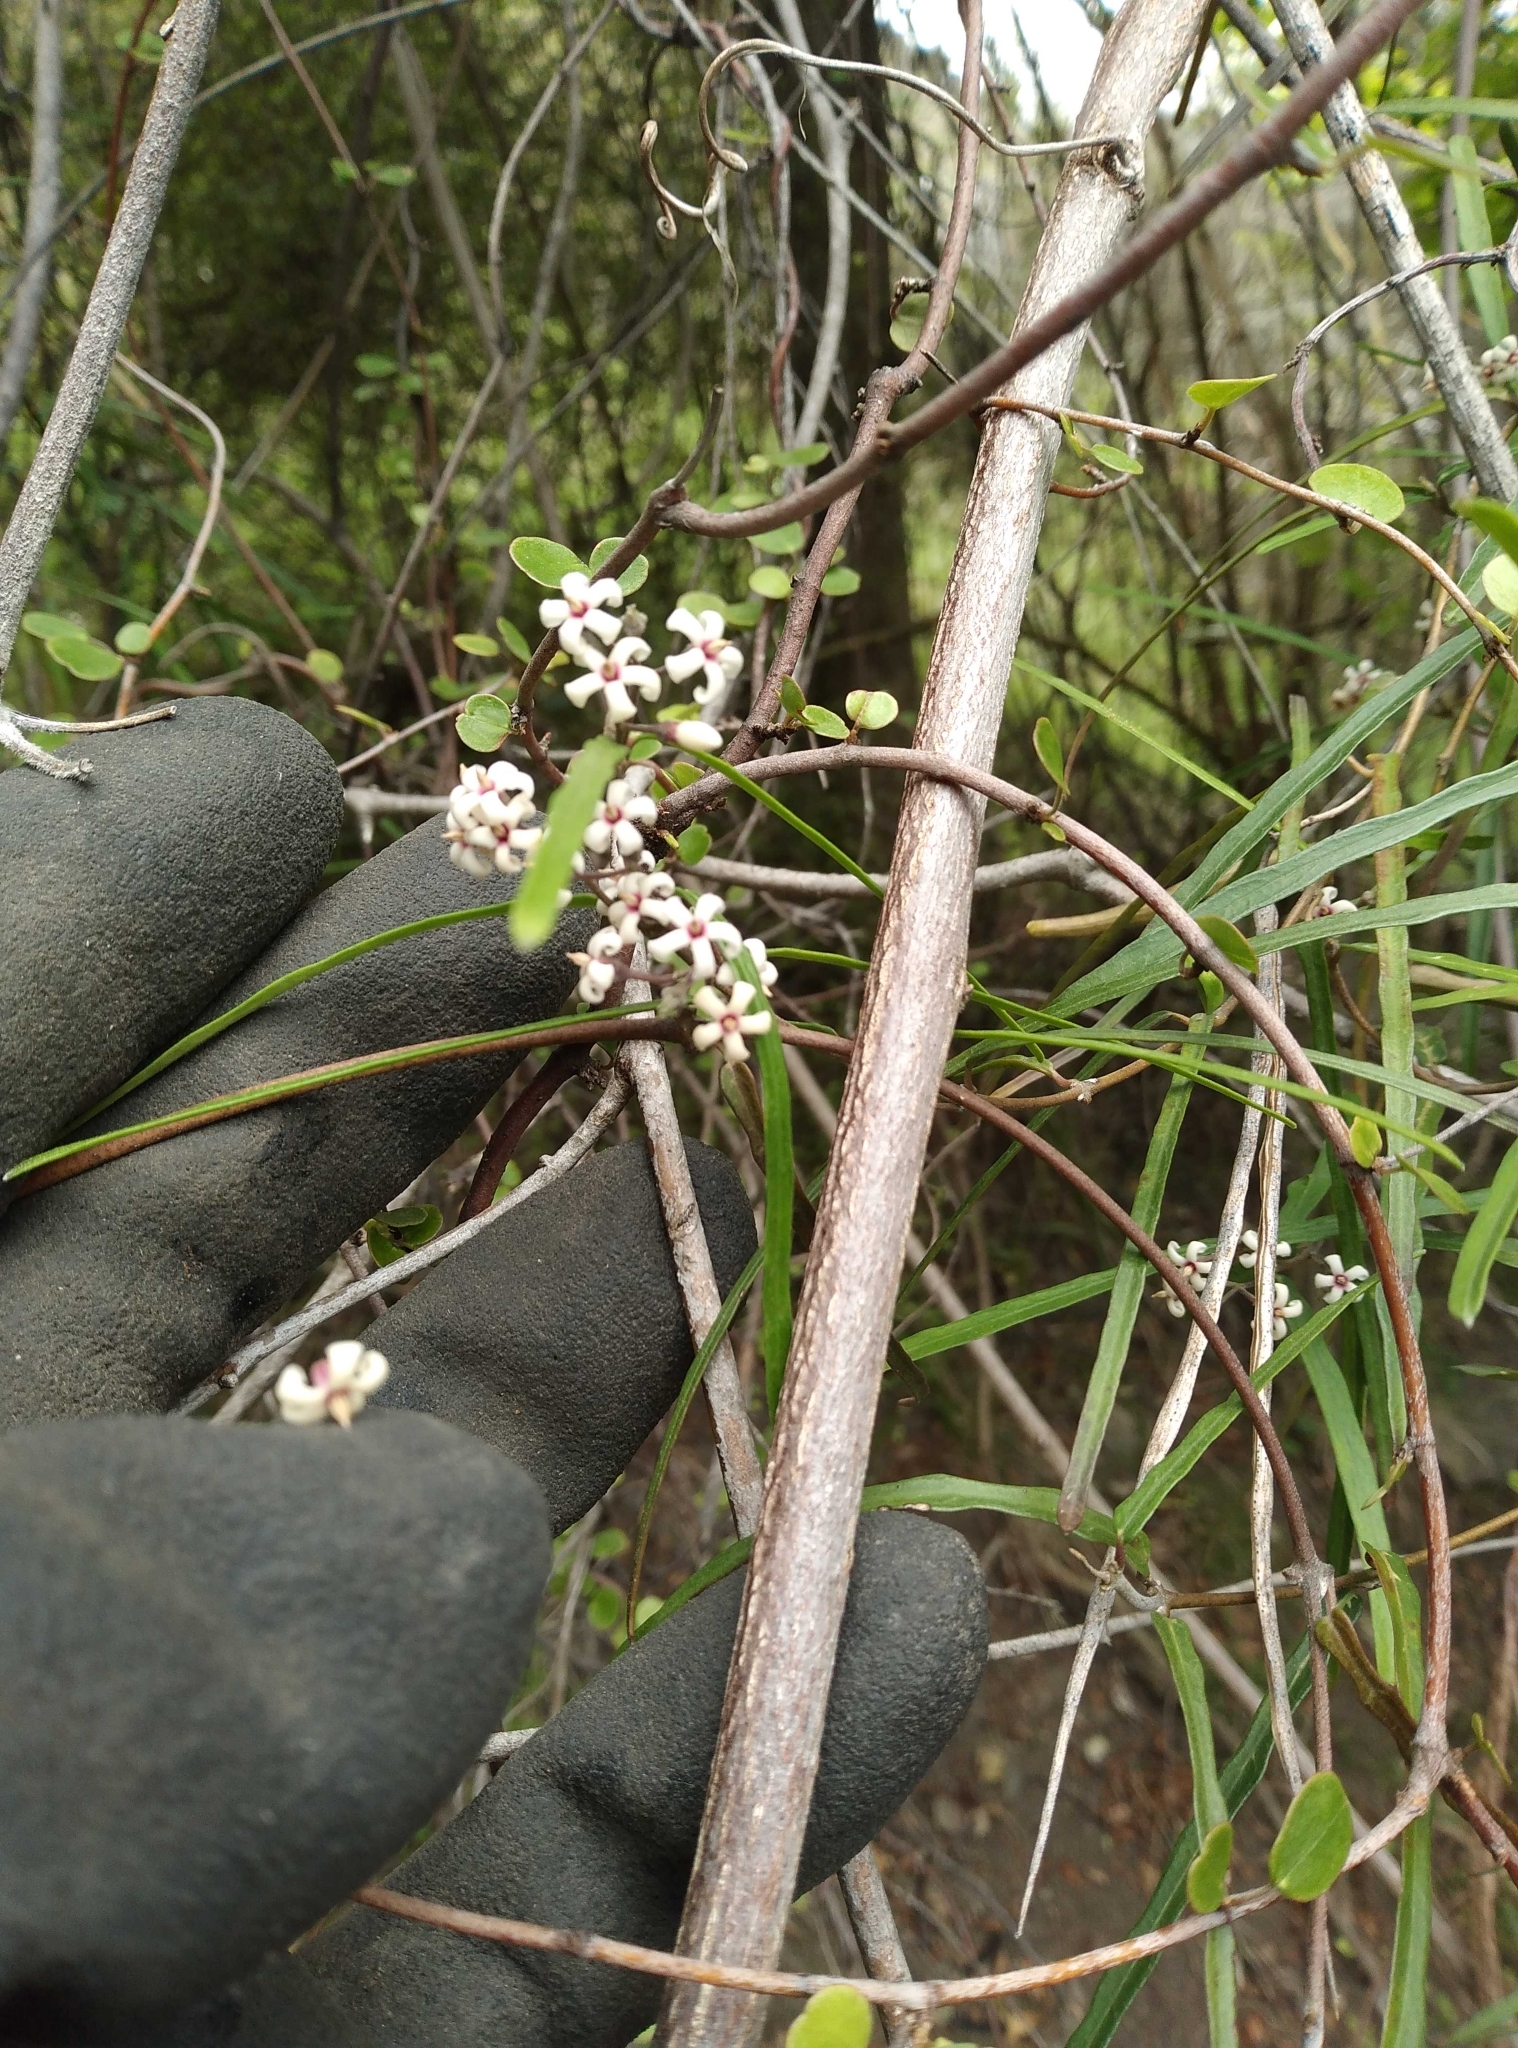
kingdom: Plantae
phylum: Tracheophyta
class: Magnoliopsida
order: Gentianales
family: Apocynaceae
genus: Parsonsia
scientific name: Parsonsia capsularis
